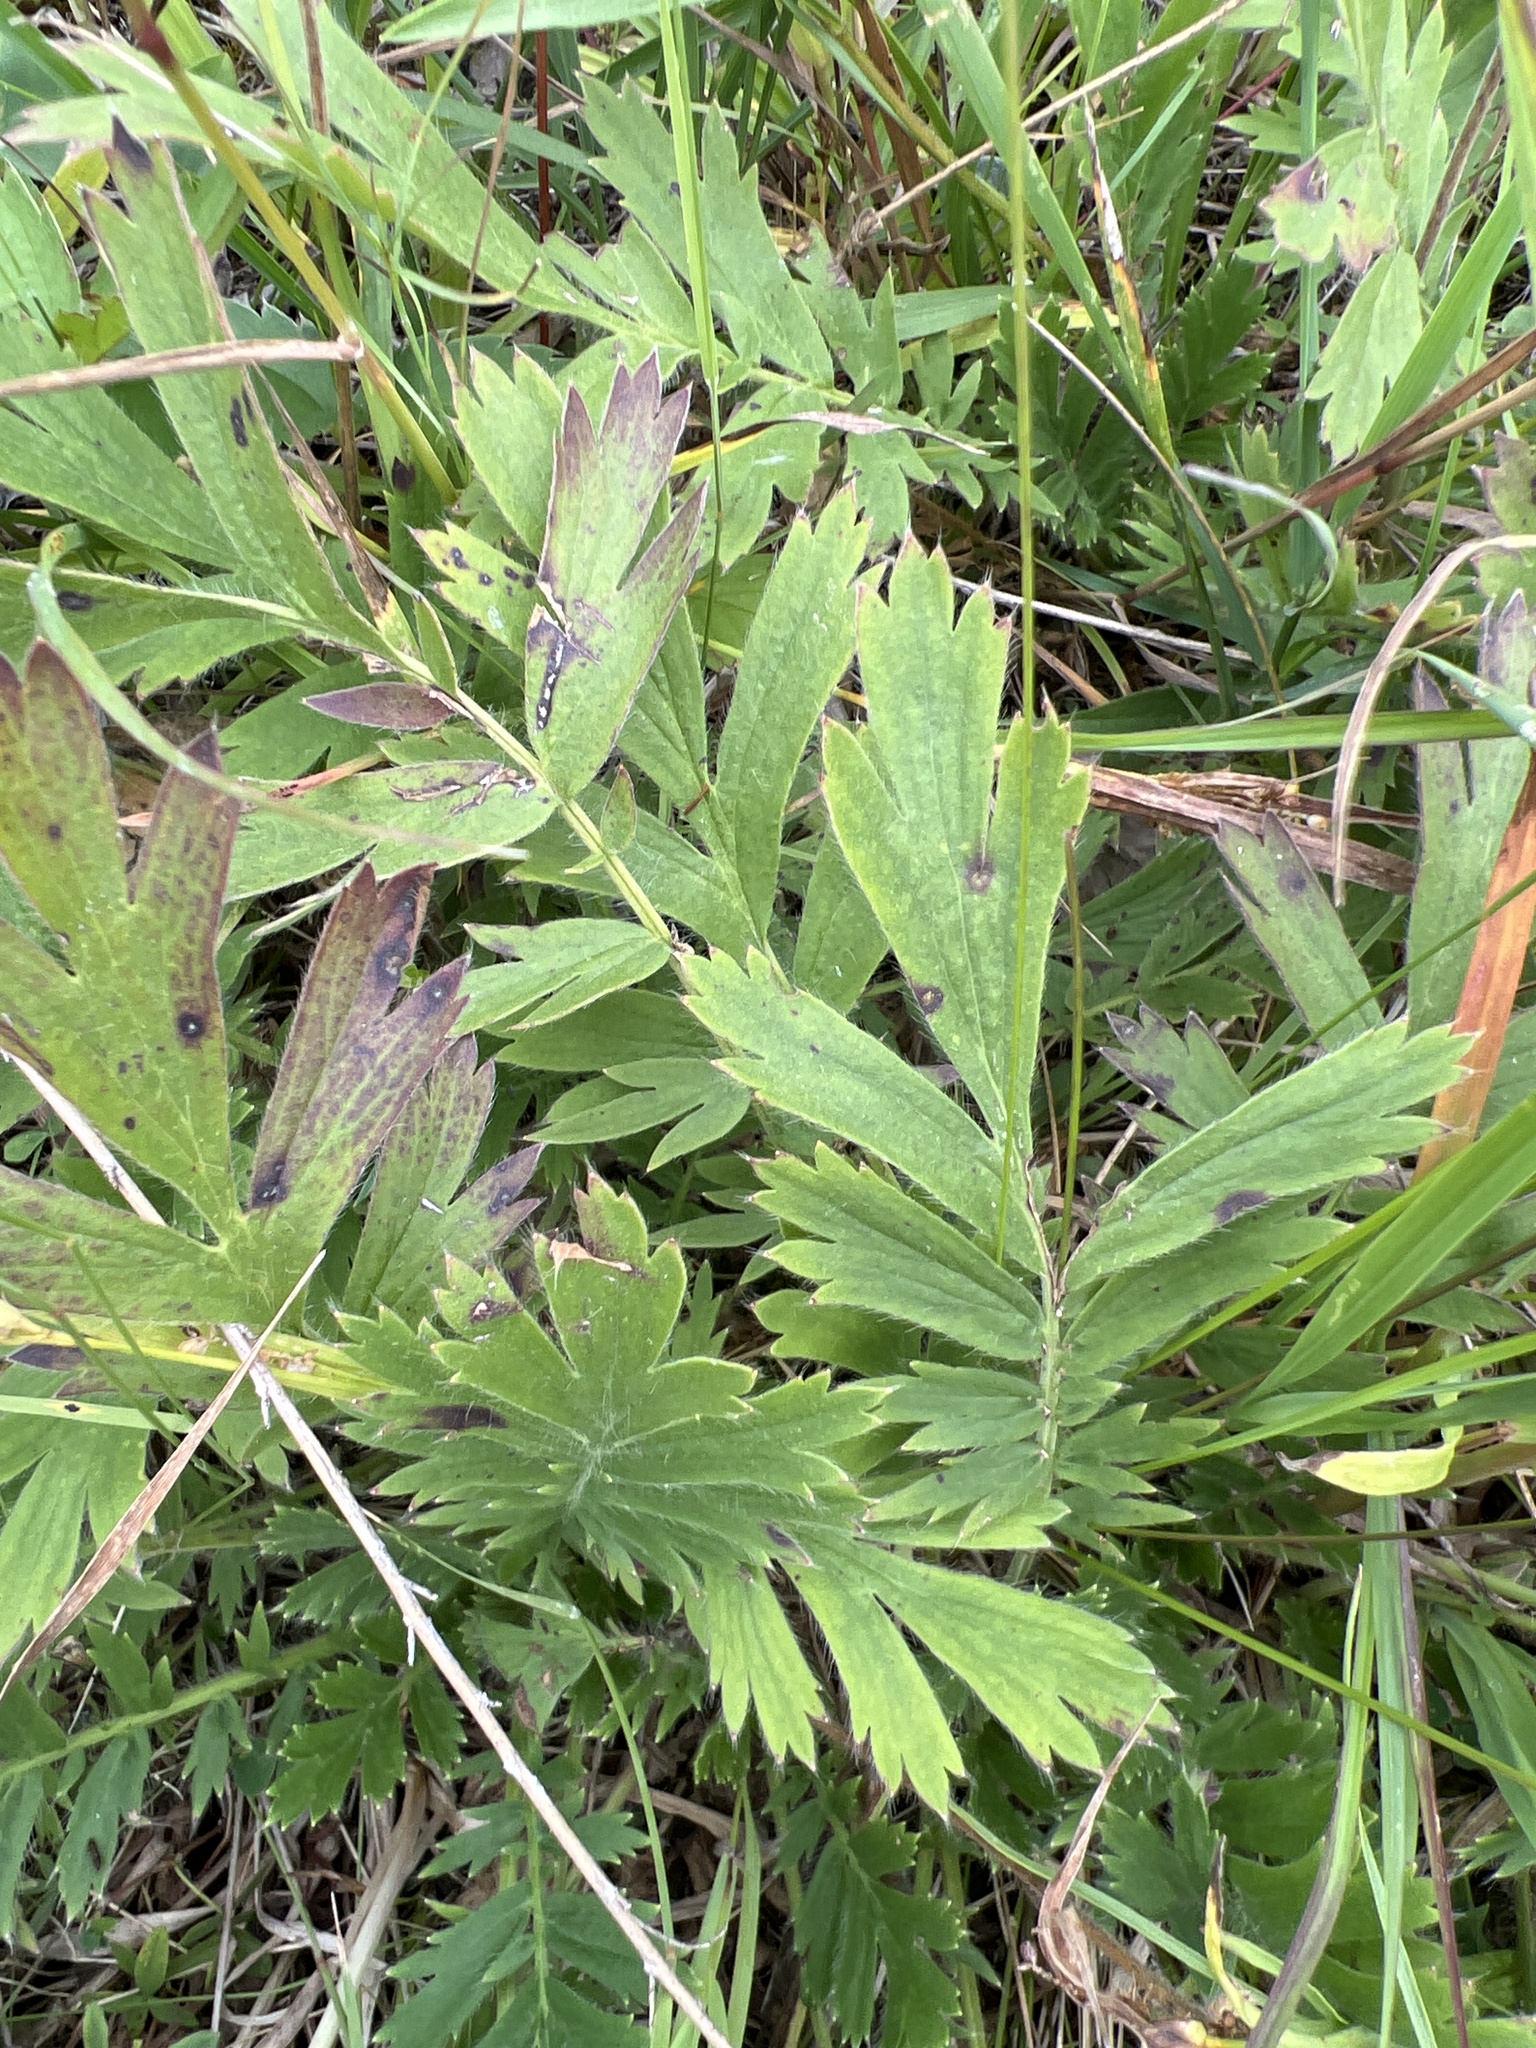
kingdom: Plantae
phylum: Tracheophyta
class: Magnoliopsida
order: Rosales
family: Rosaceae
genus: Geum
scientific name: Geum triflorum
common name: Old man's whiskers
